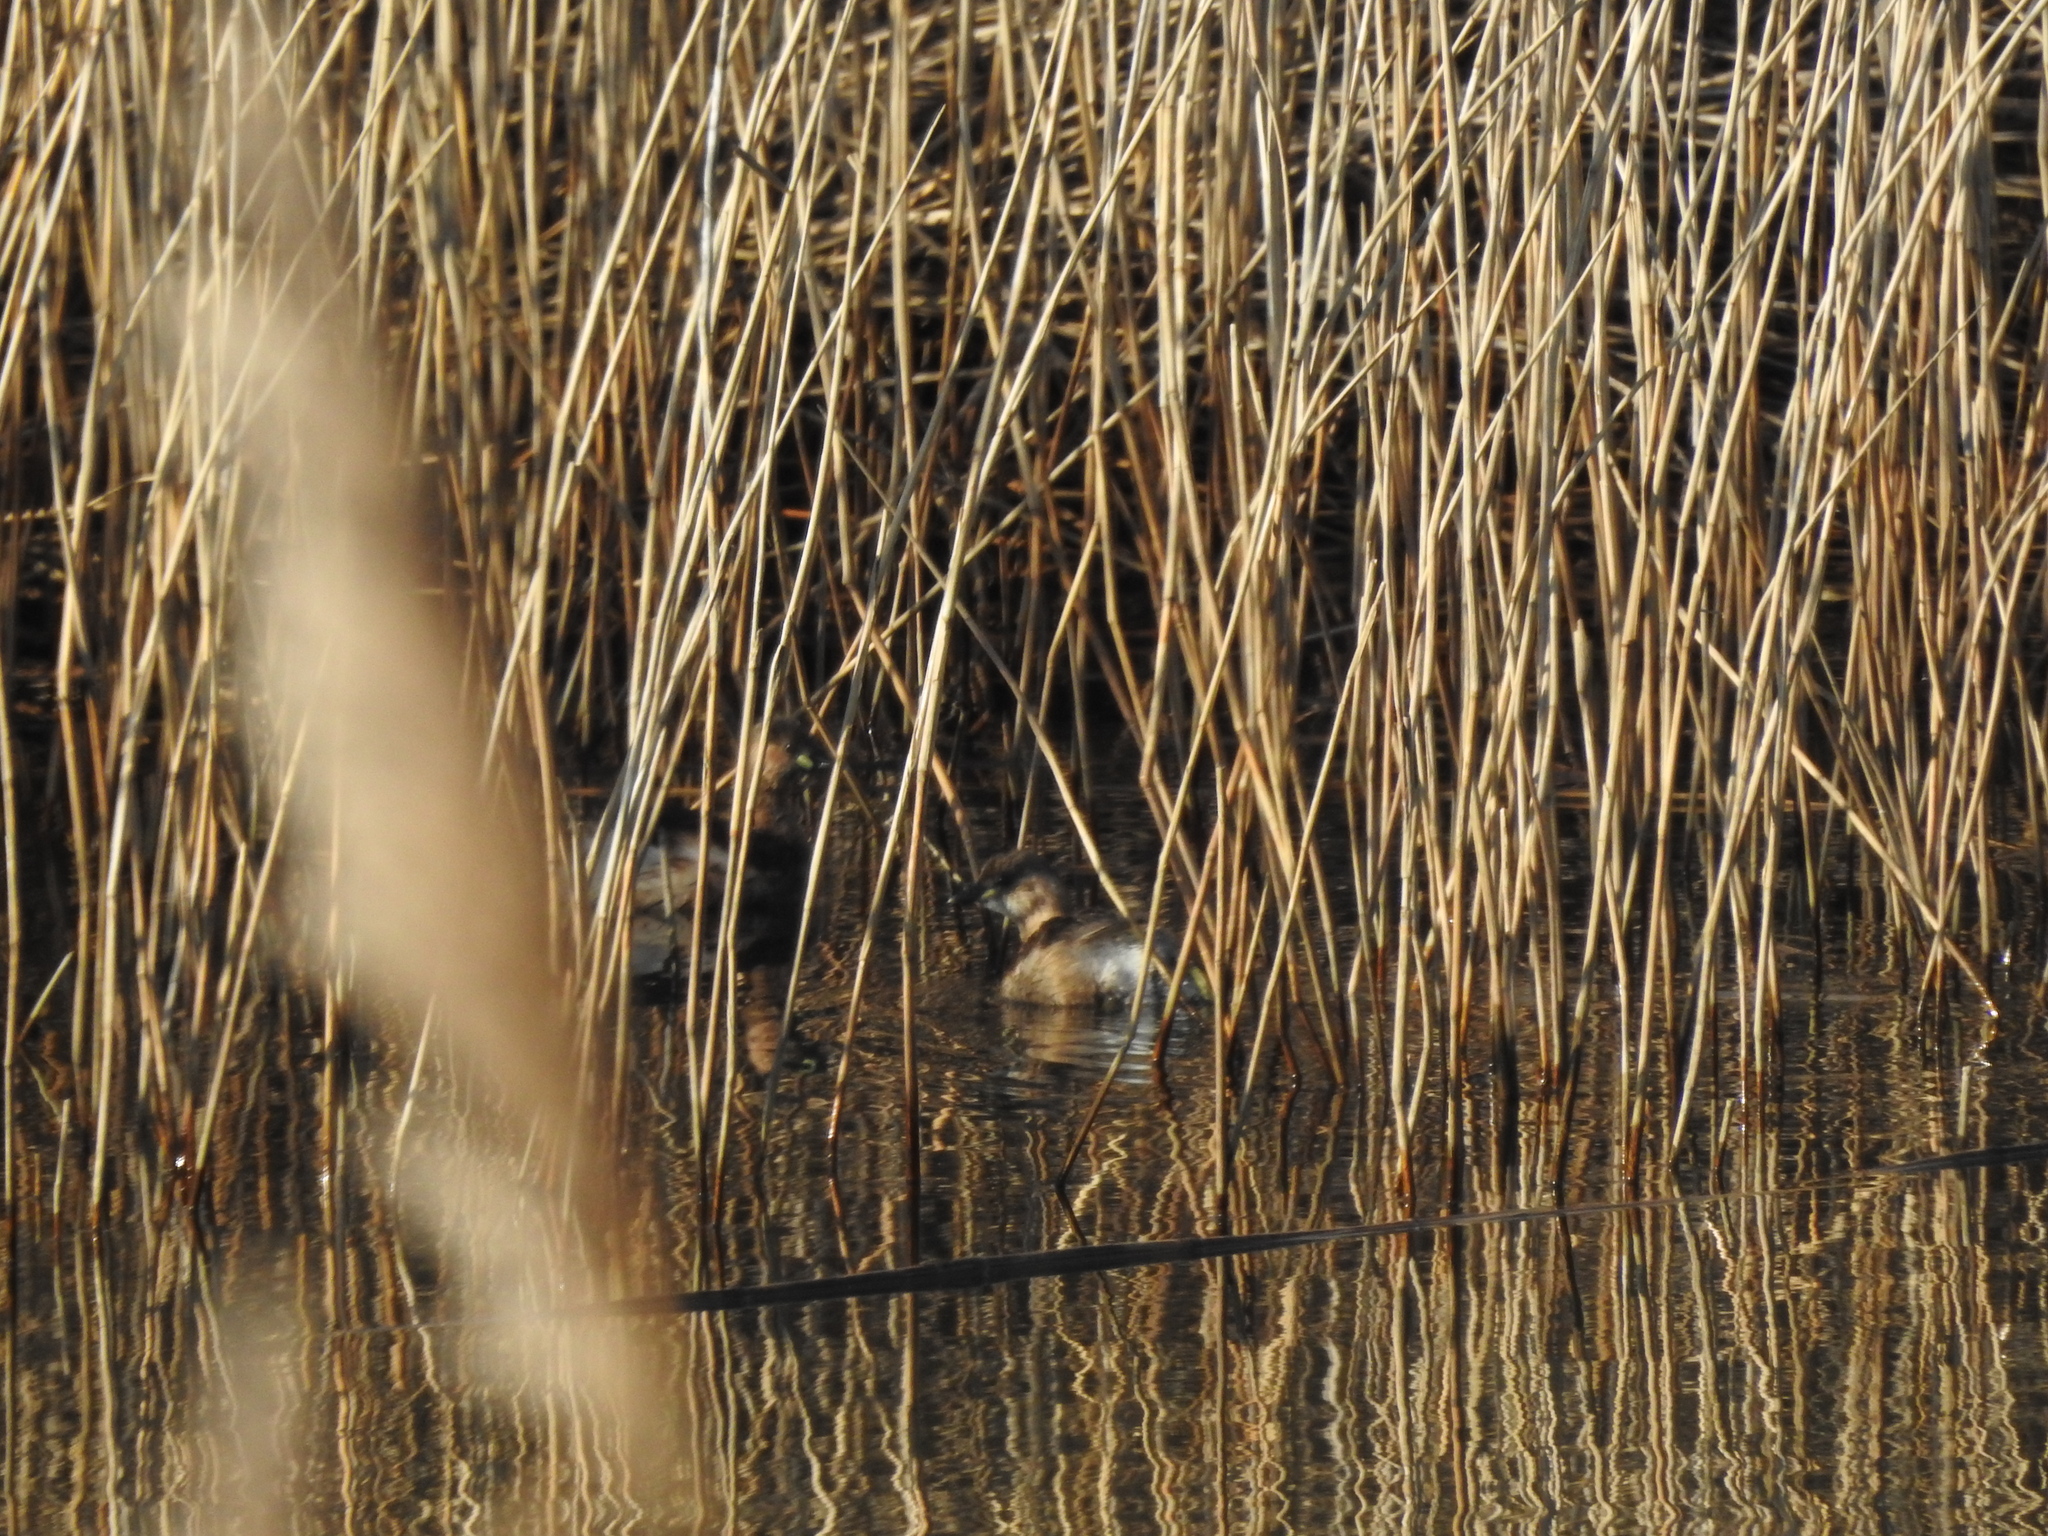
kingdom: Animalia
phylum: Chordata
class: Aves
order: Podicipediformes
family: Podicipedidae
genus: Tachybaptus
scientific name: Tachybaptus ruficollis
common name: Little grebe
